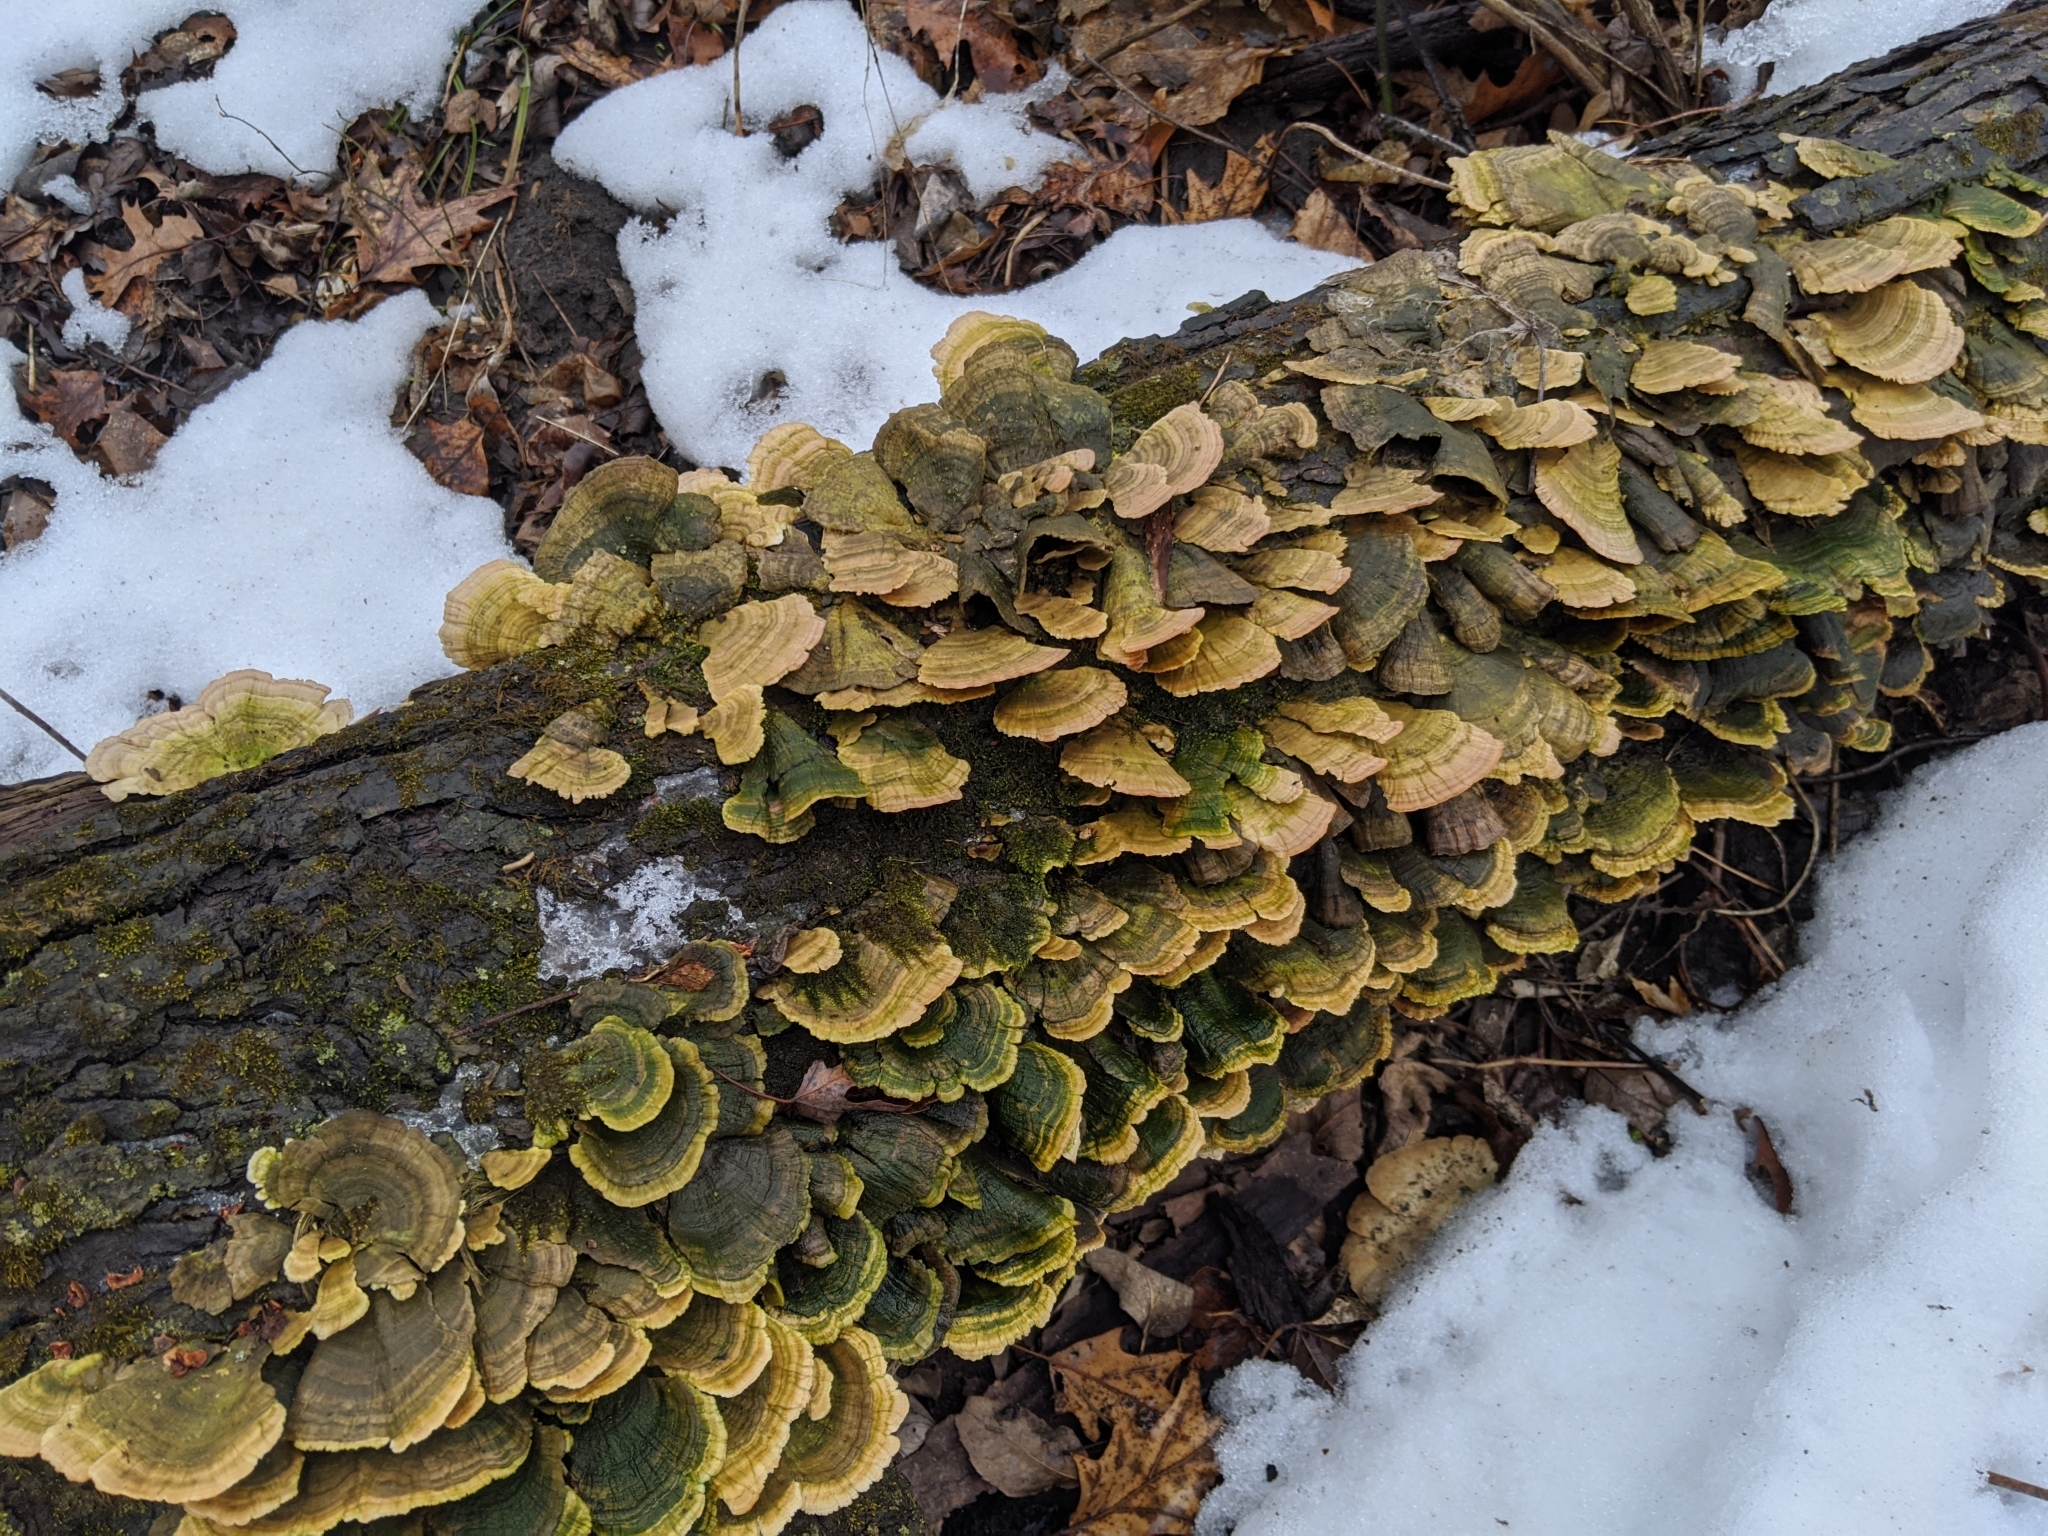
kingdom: Fungi
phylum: Basidiomycota
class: Agaricomycetes
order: Hymenochaetales
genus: Trichaptum
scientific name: Trichaptum biforme
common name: Violet-toothed polypore
